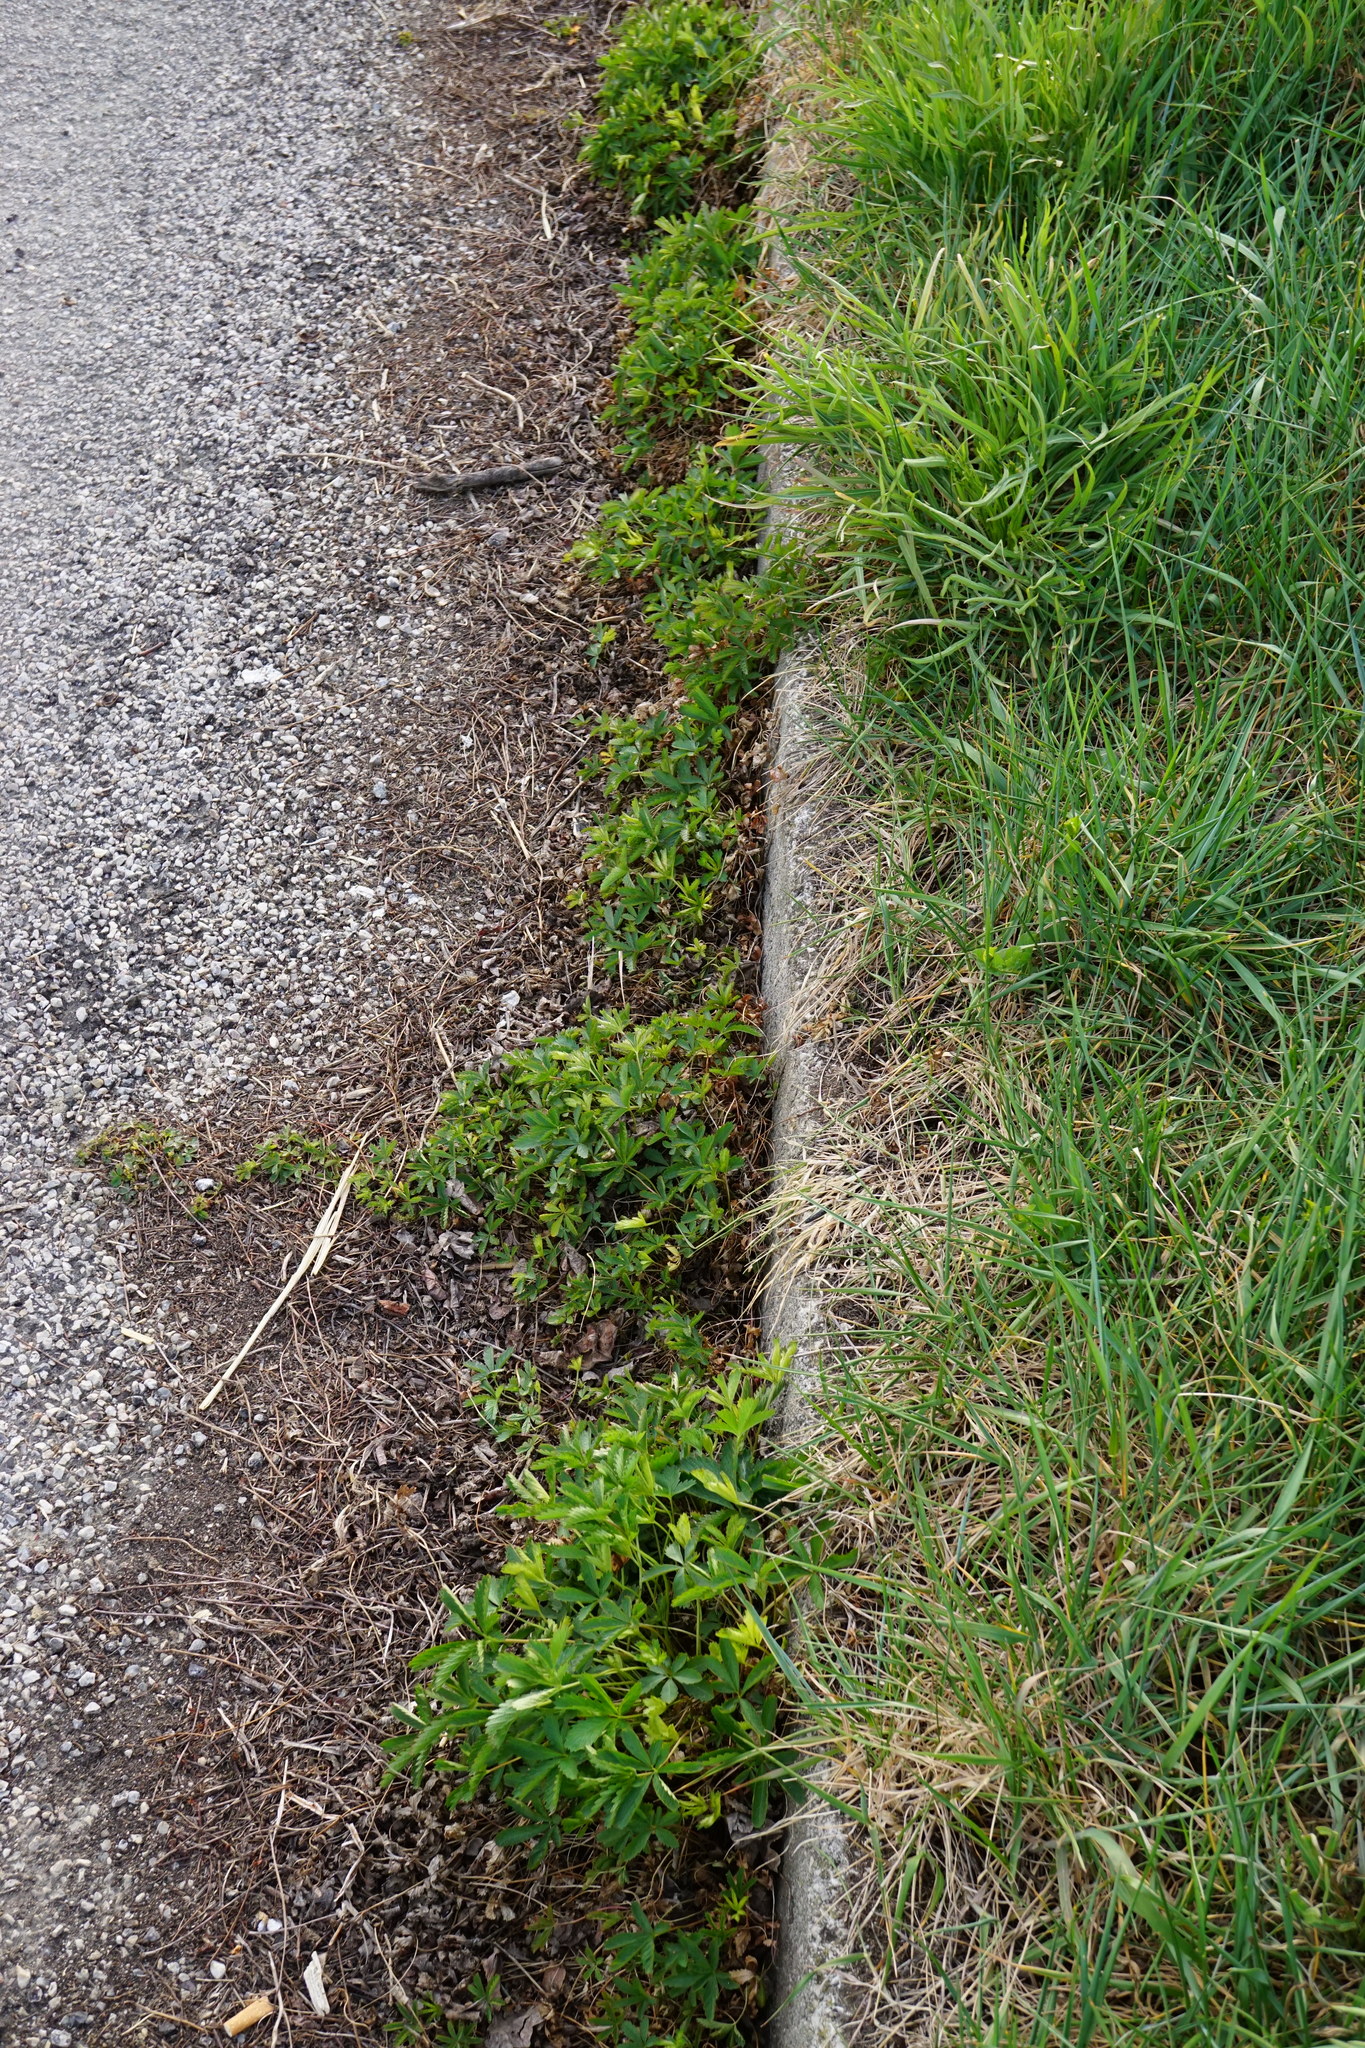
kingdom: Plantae
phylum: Tracheophyta
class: Magnoliopsida
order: Rosales
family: Rosaceae
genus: Potentilla
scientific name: Potentilla reptans
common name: Creeping cinquefoil
